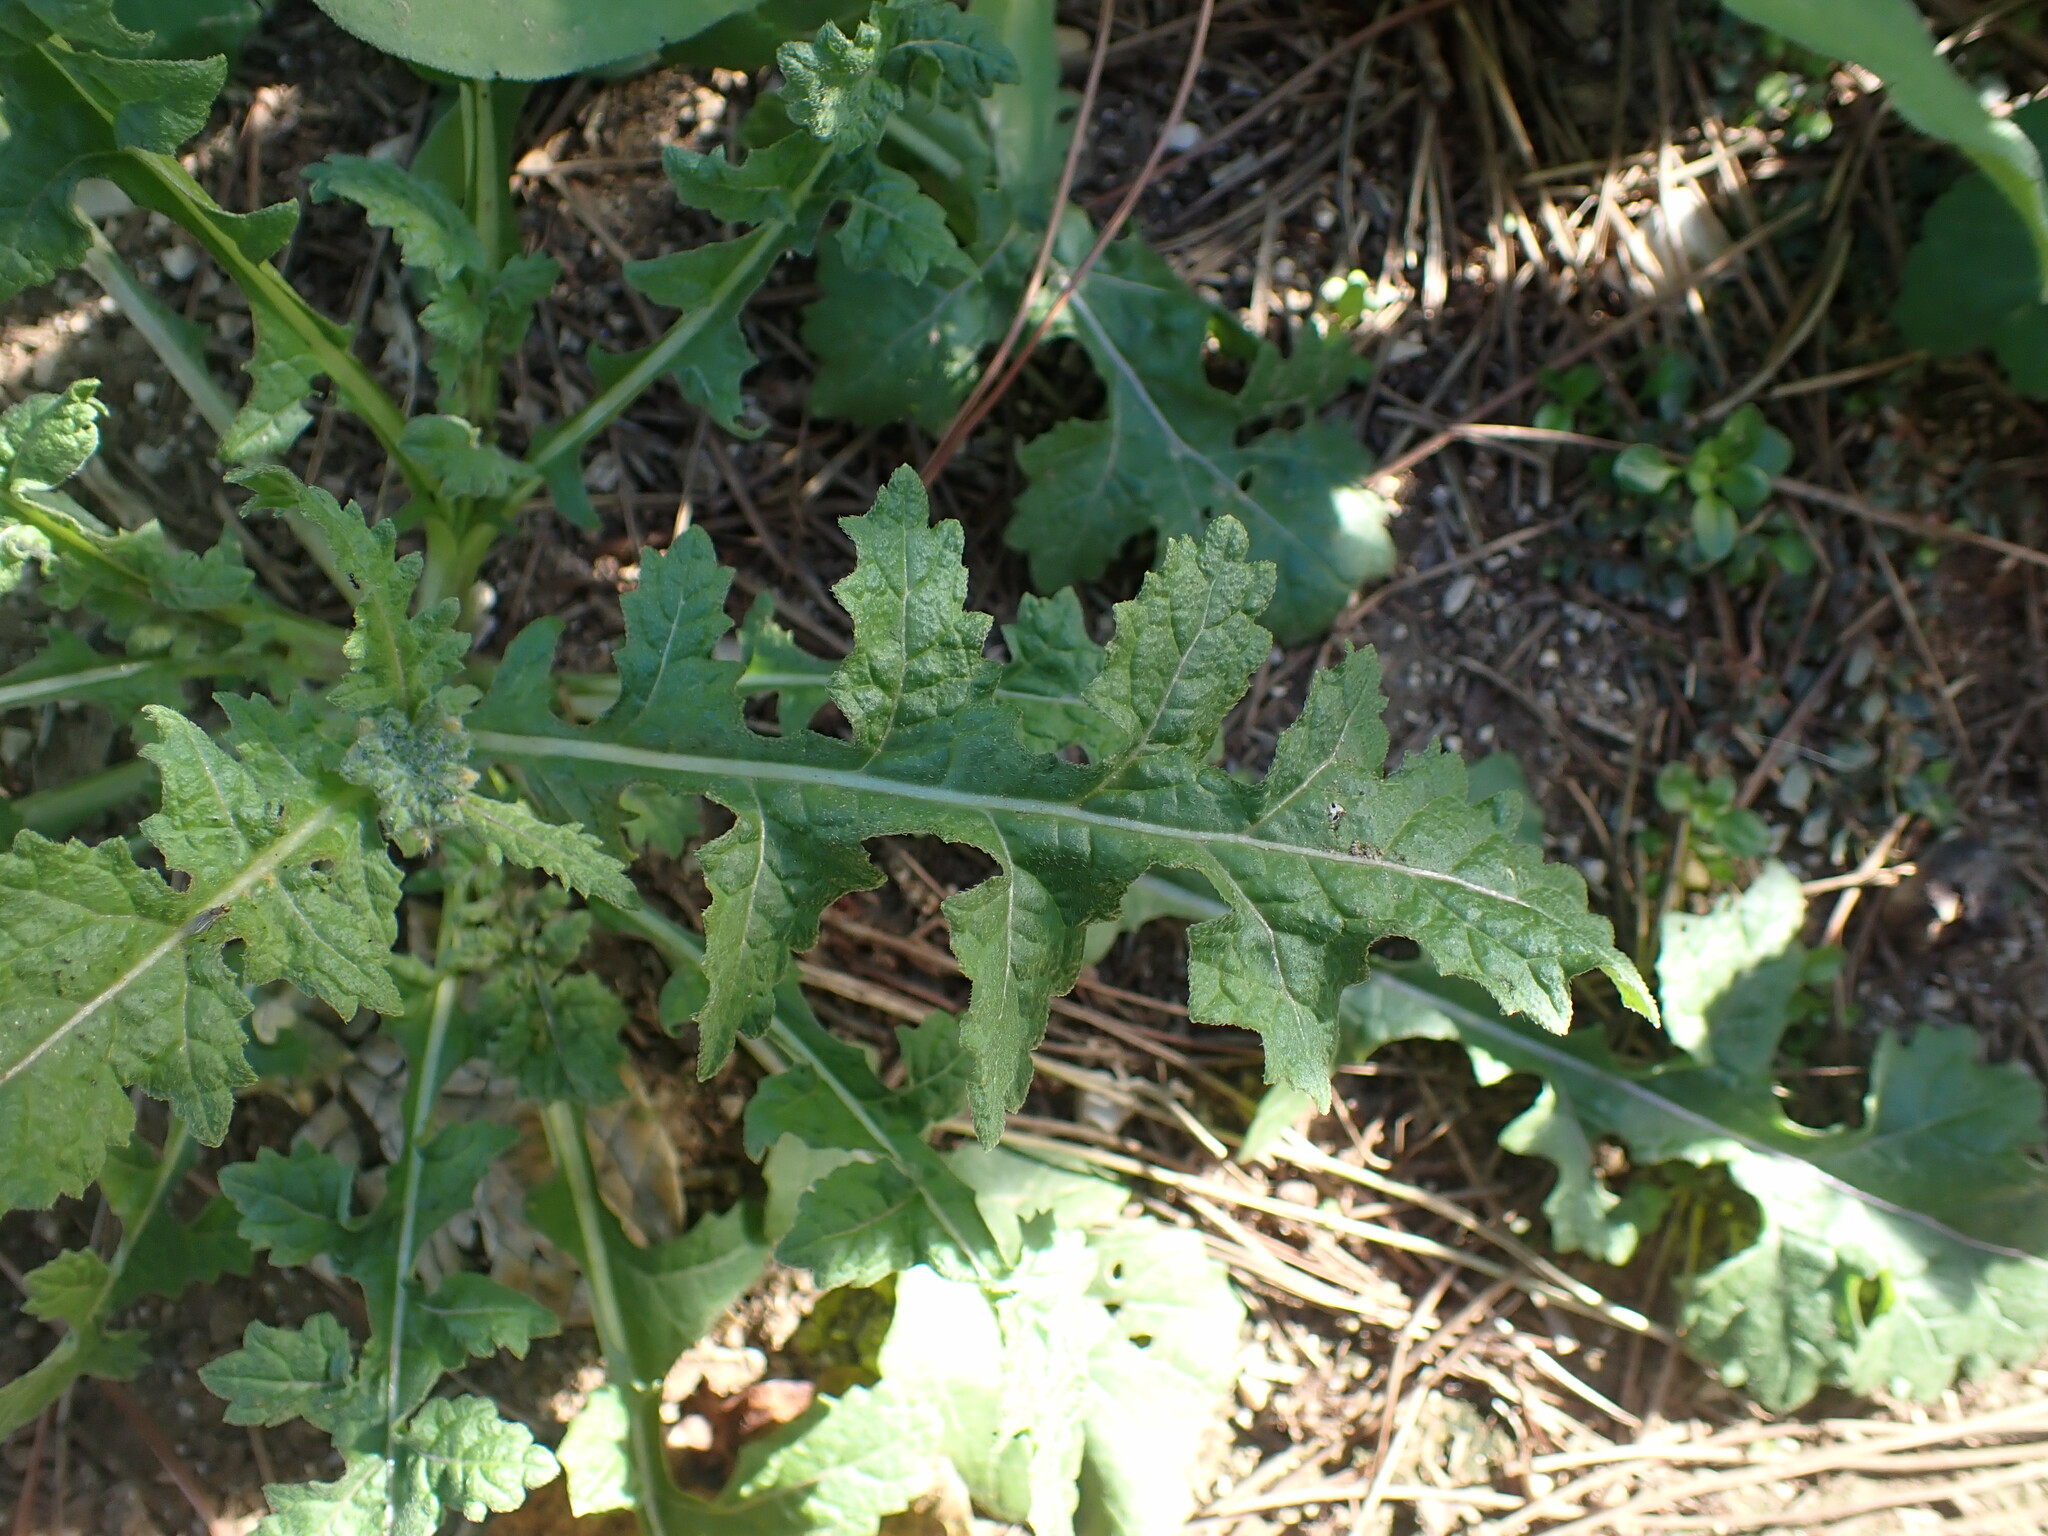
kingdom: Plantae
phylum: Tracheophyta
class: Magnoliopsida
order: Brassicales
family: Brassicaceae
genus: Diplotaxis
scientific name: Diplotaxis erucoides
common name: White rocket
